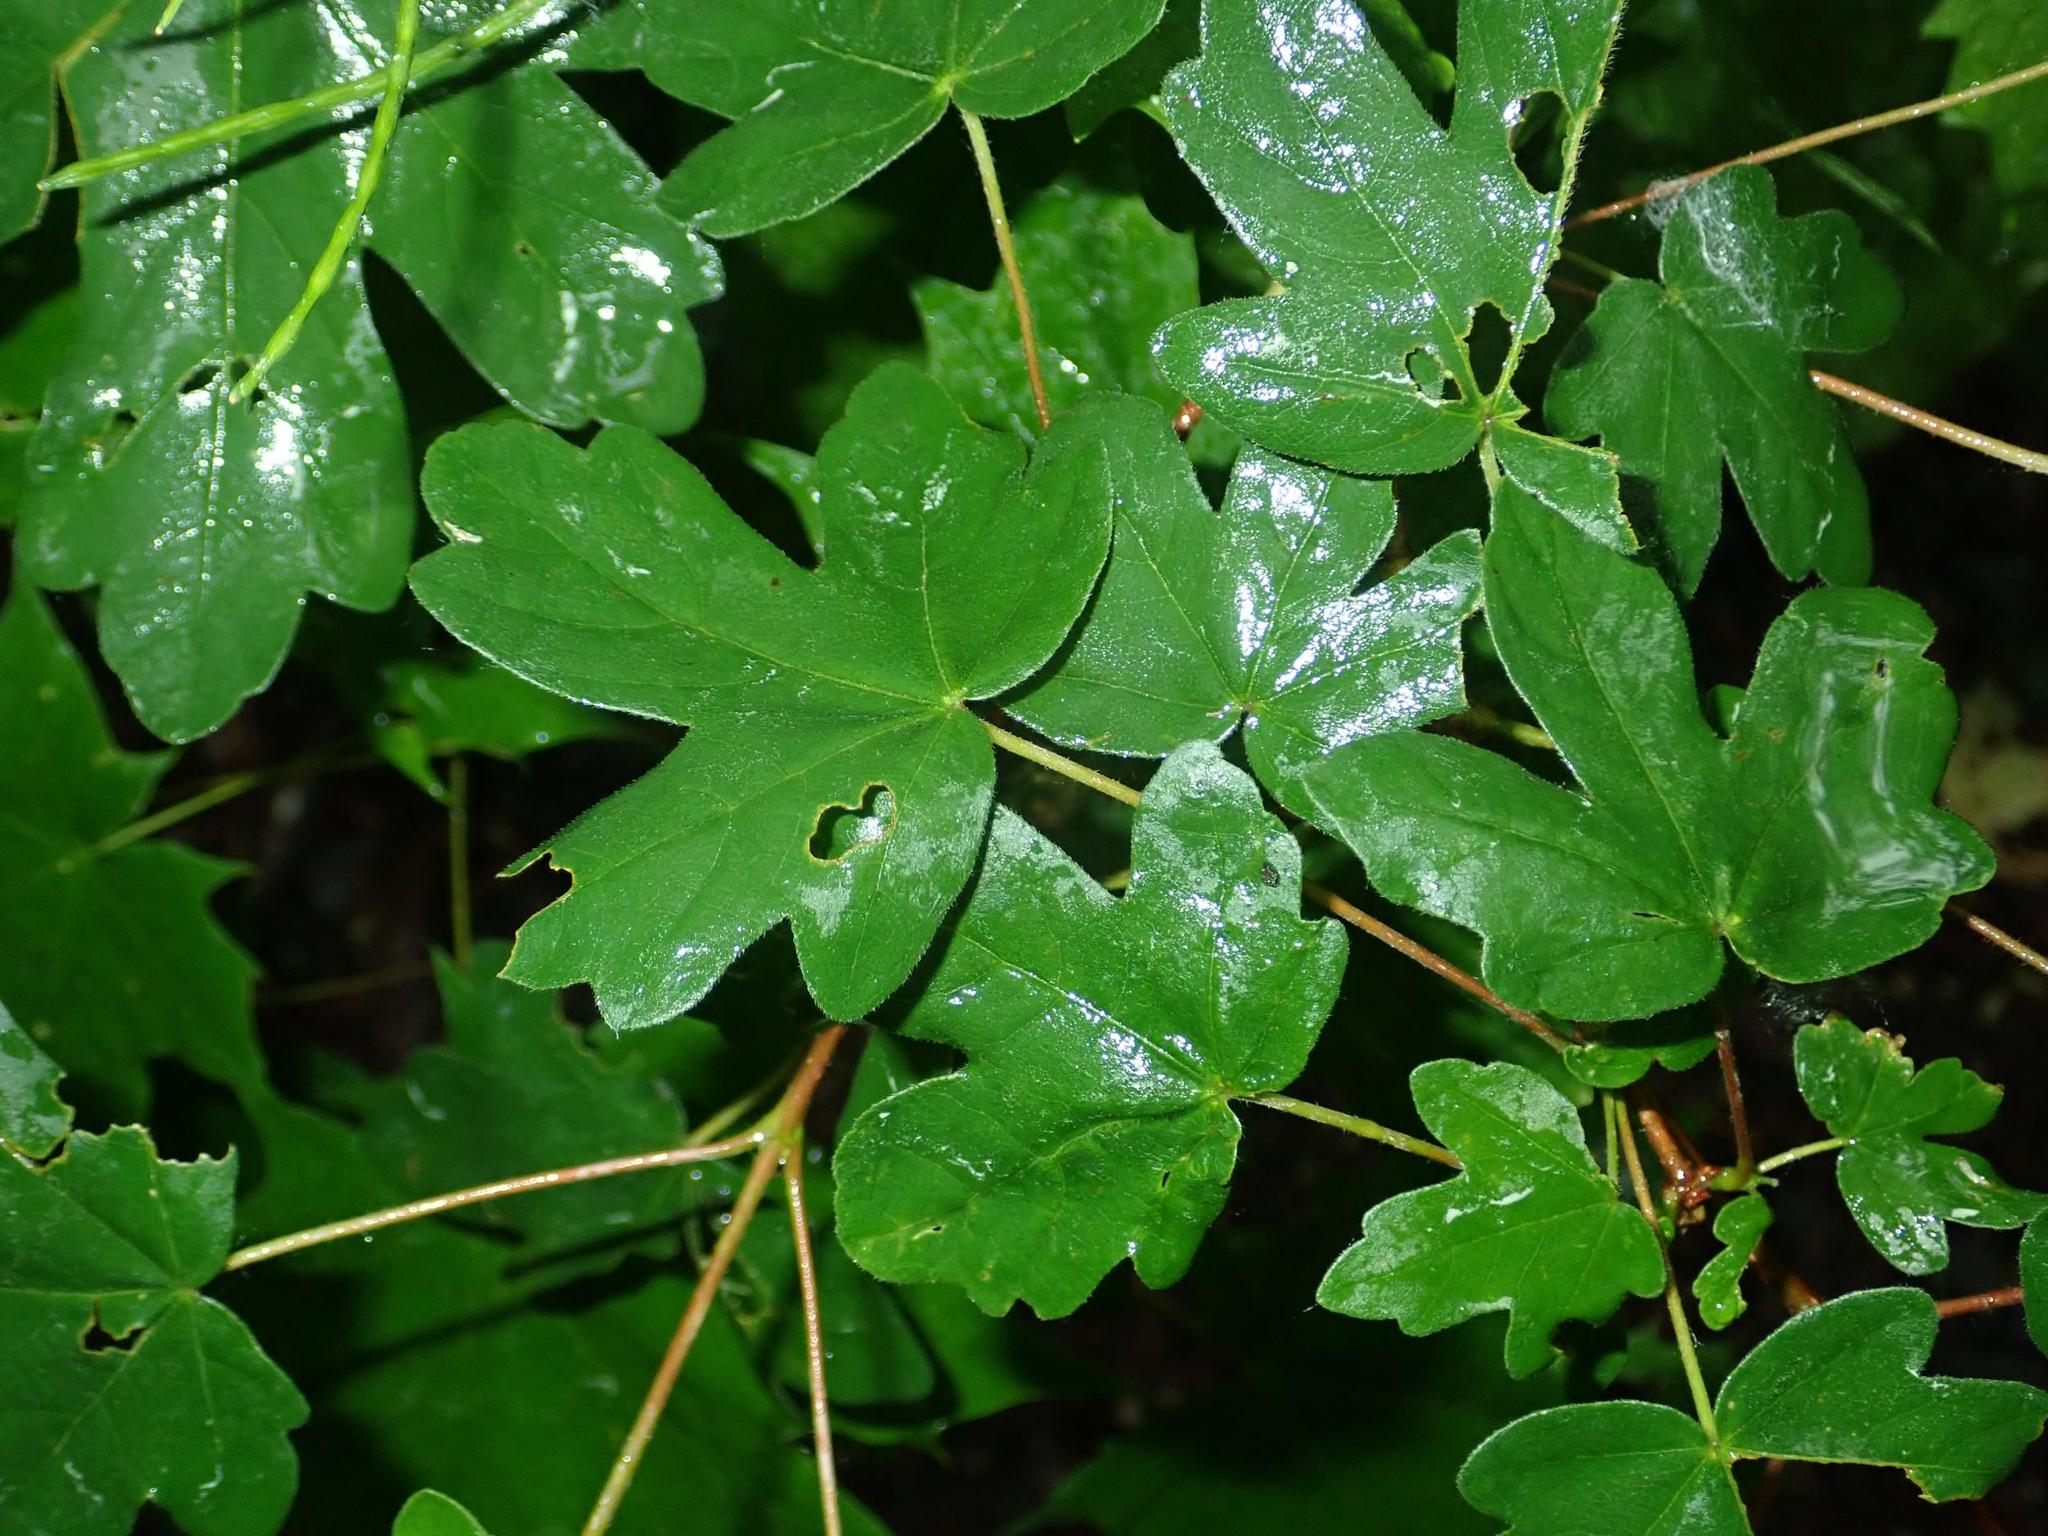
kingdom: Plantae
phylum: Tracheophyta
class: Magnoliopsida
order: Sapindales
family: Sapindaceae
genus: Acer
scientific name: Acer campestre
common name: Field maple
